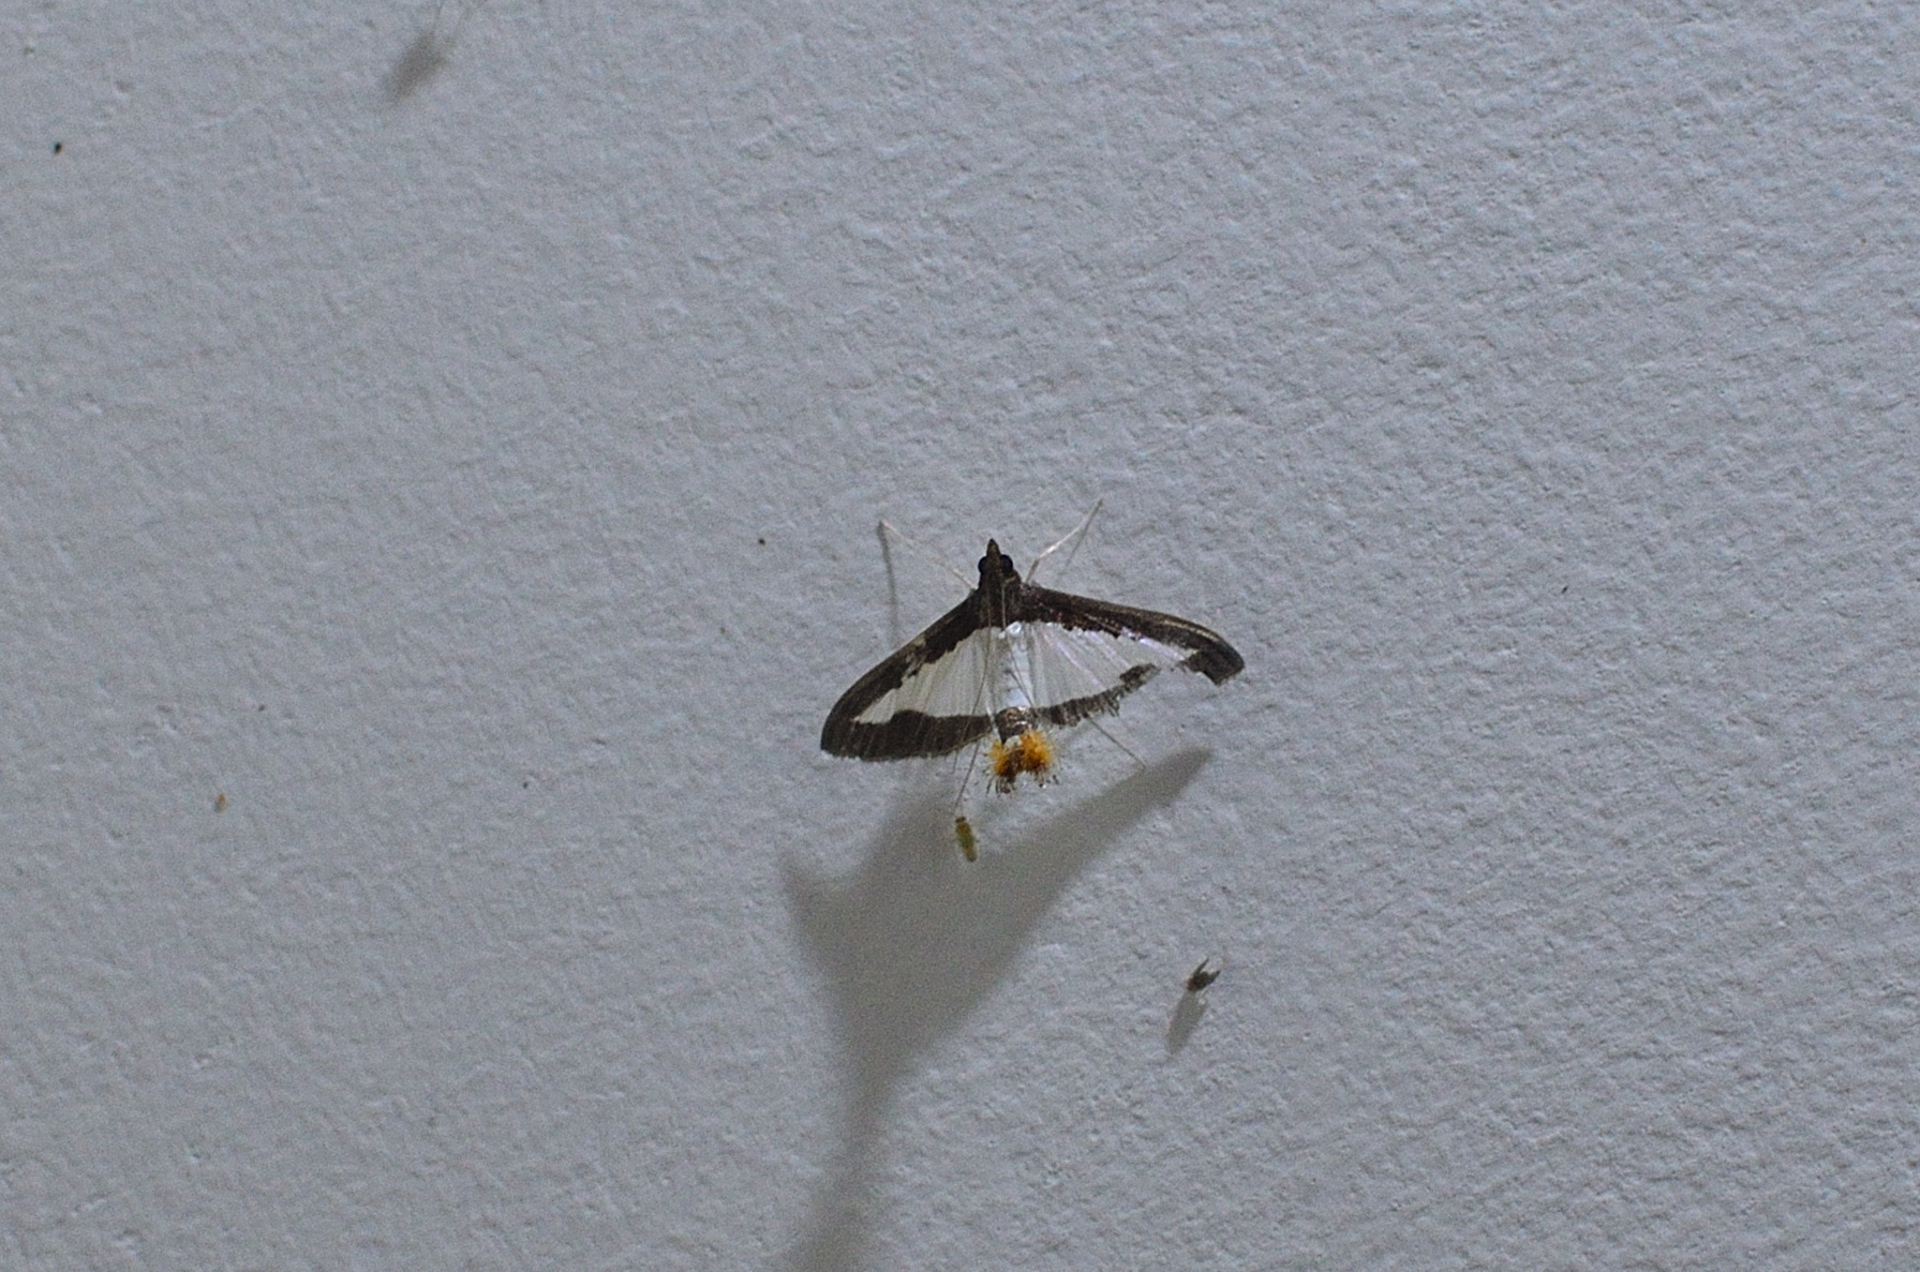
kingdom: Animalia
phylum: Arthropoda
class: Insecta
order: Lepidoptera
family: Crambidae
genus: Diaphania
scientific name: Diaphania indica
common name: Cucumber moth
